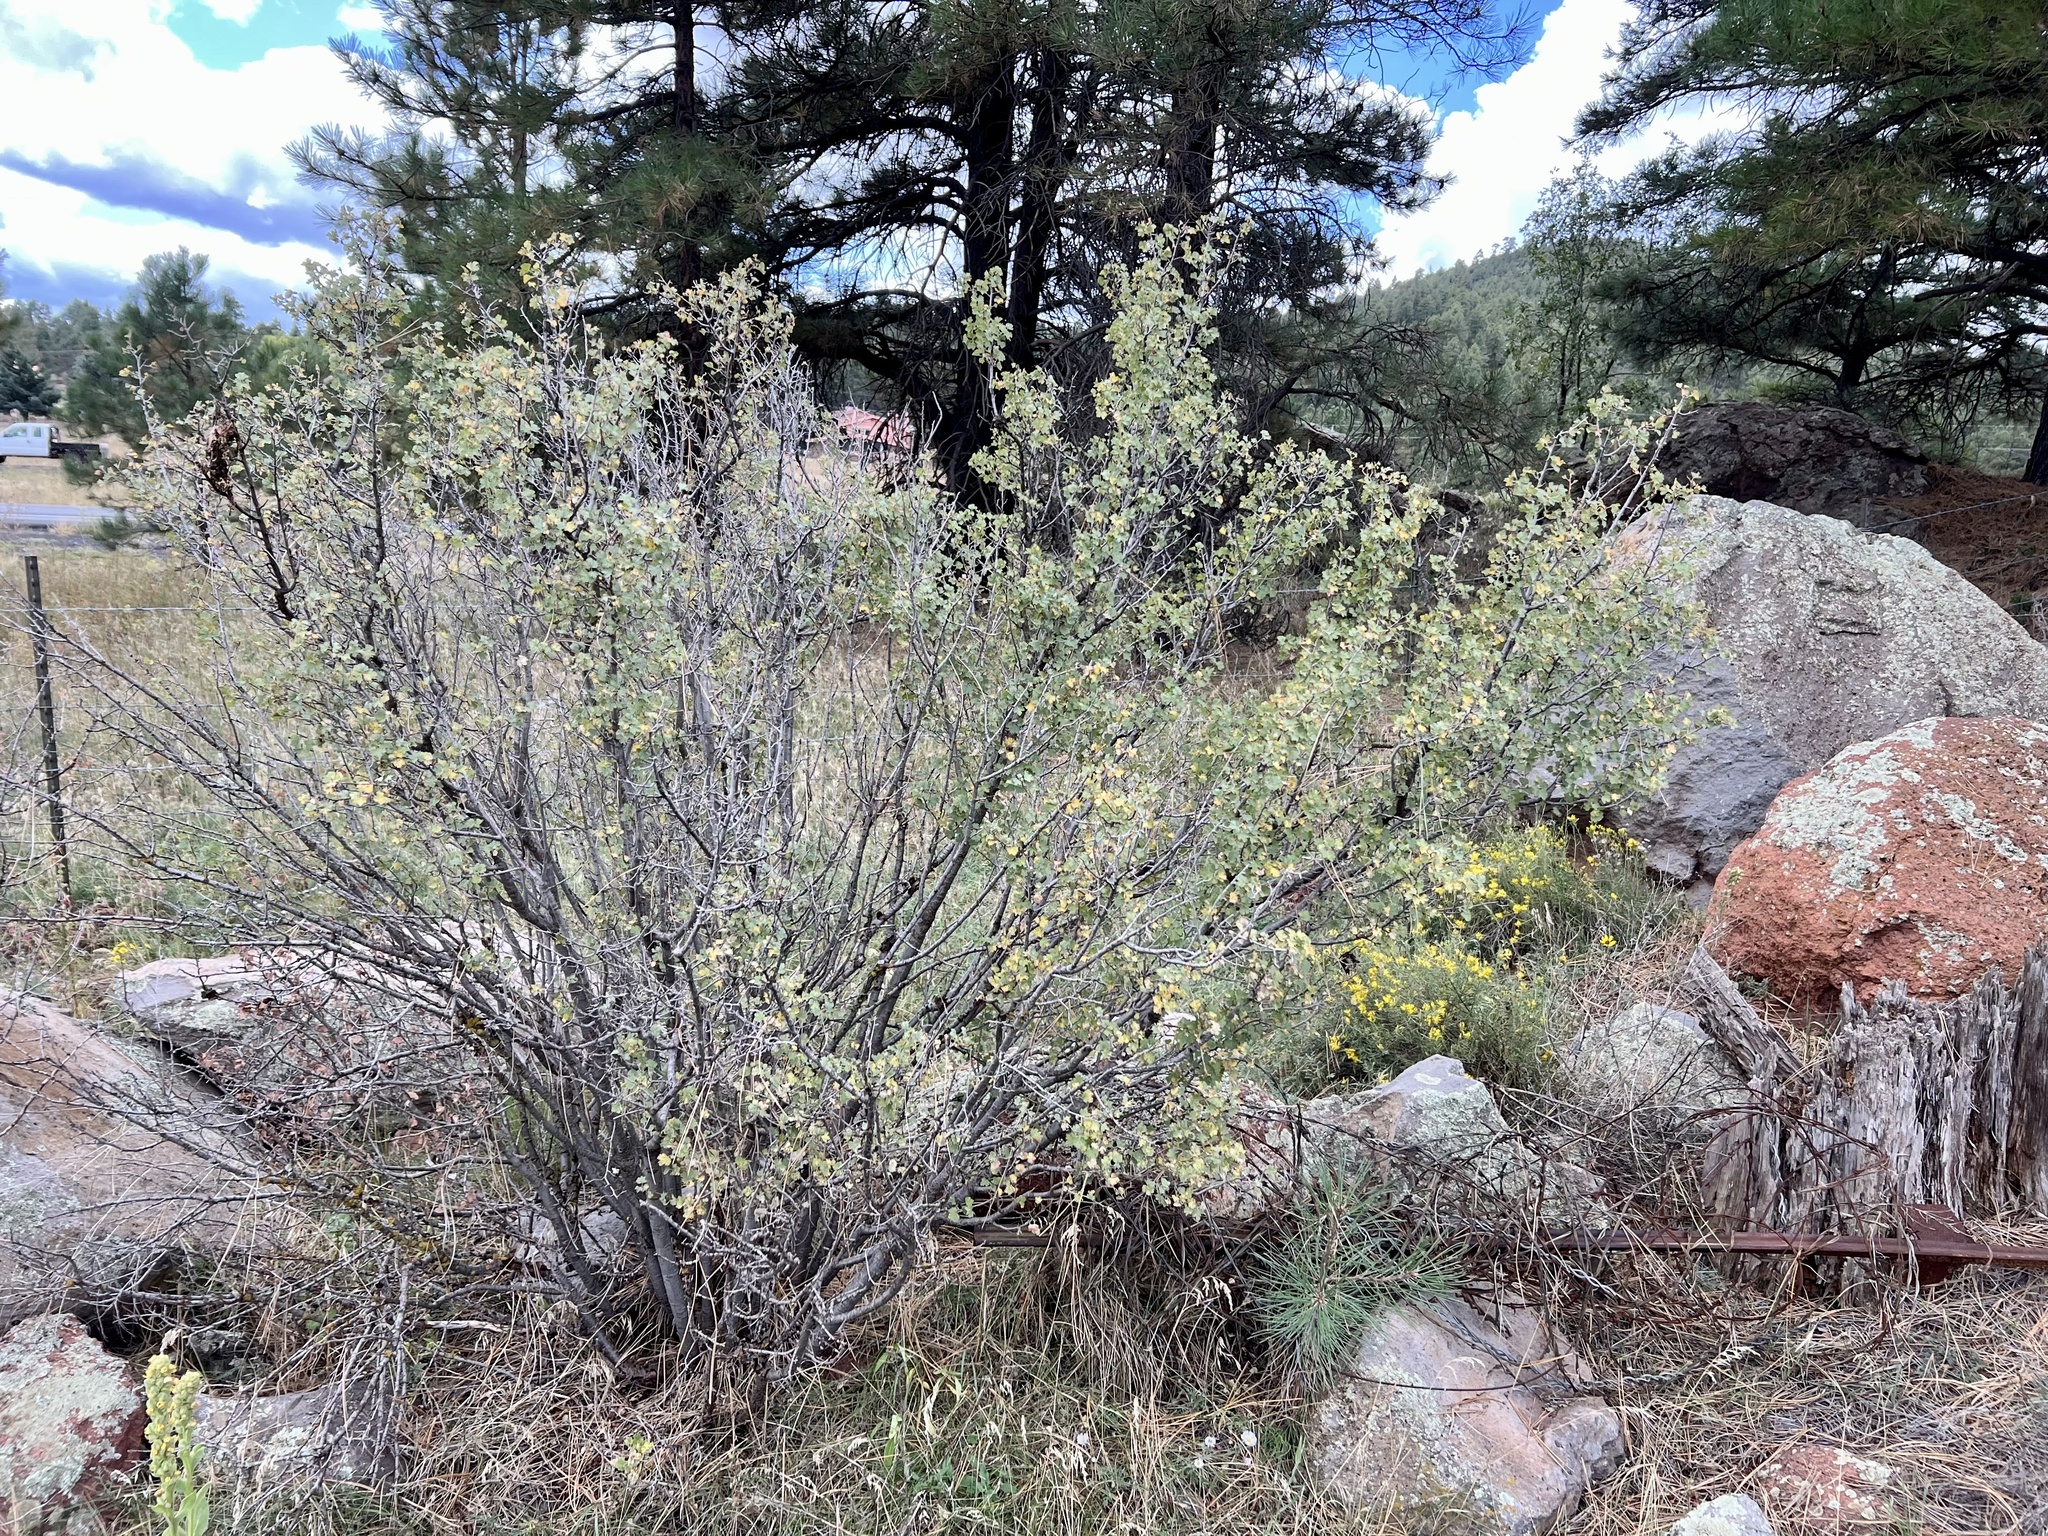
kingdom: Plantae
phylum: Tracheophyta
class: Magnoliopsida
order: Saxifragales
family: Grossulariaceae
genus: Ribes
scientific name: Ribes cereum
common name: Wax currant
